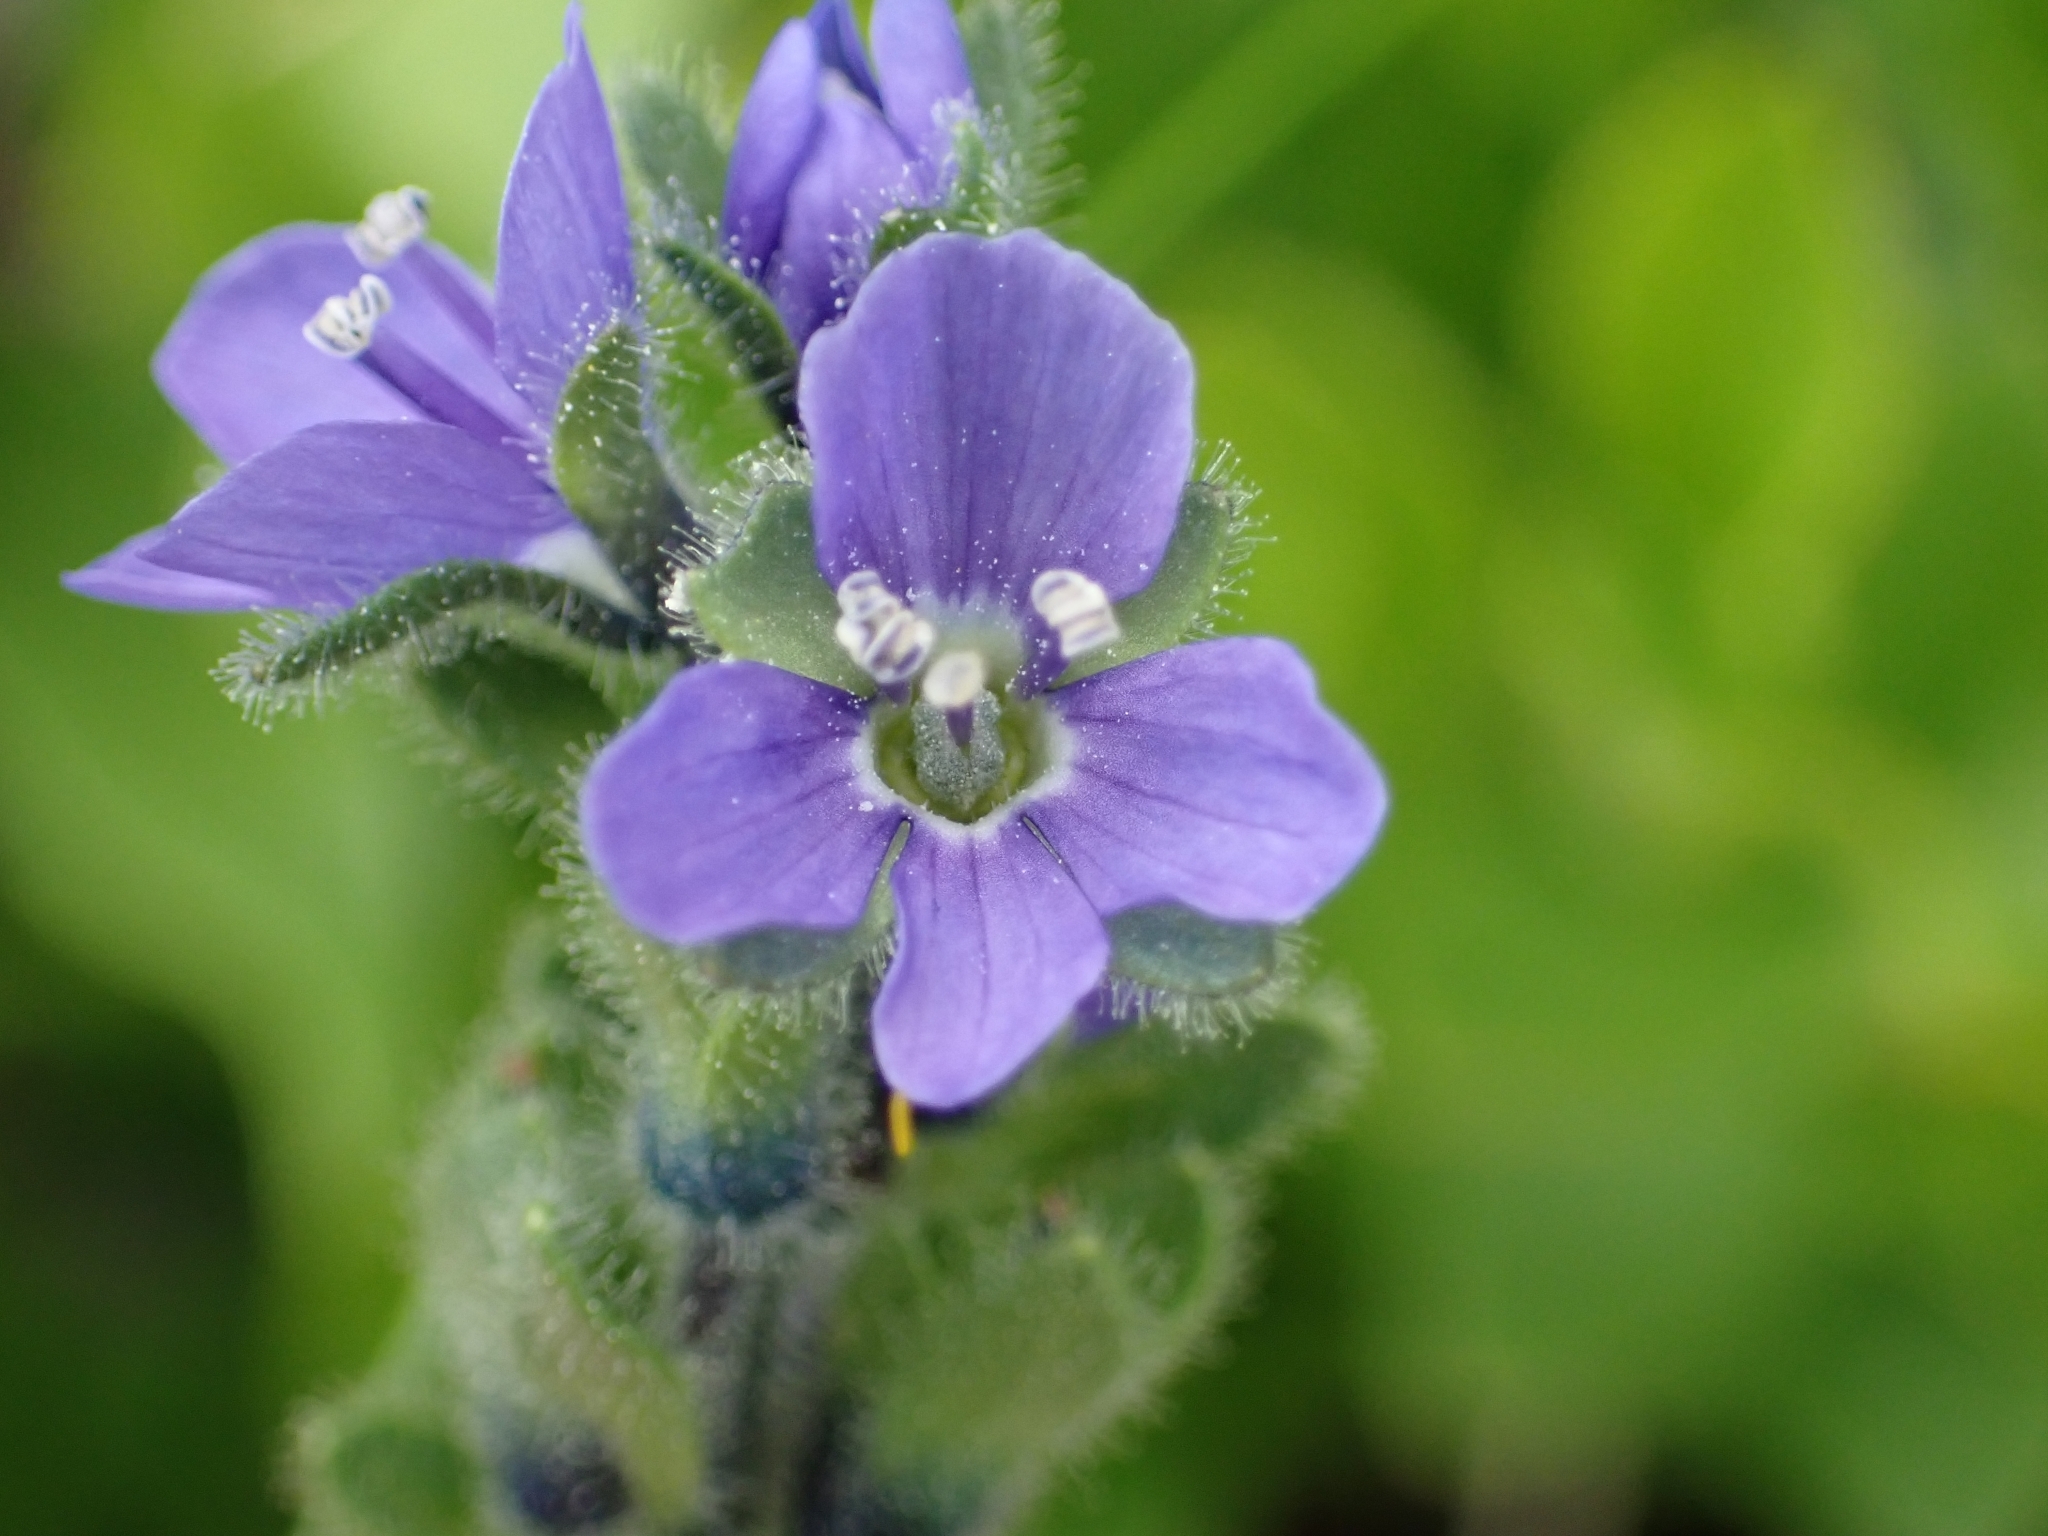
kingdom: Plantae
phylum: Tracheophyta
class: Magnoliopsida
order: Lamiales
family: Plantaginaceae
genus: Veronica
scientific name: Veronica bellidioides
